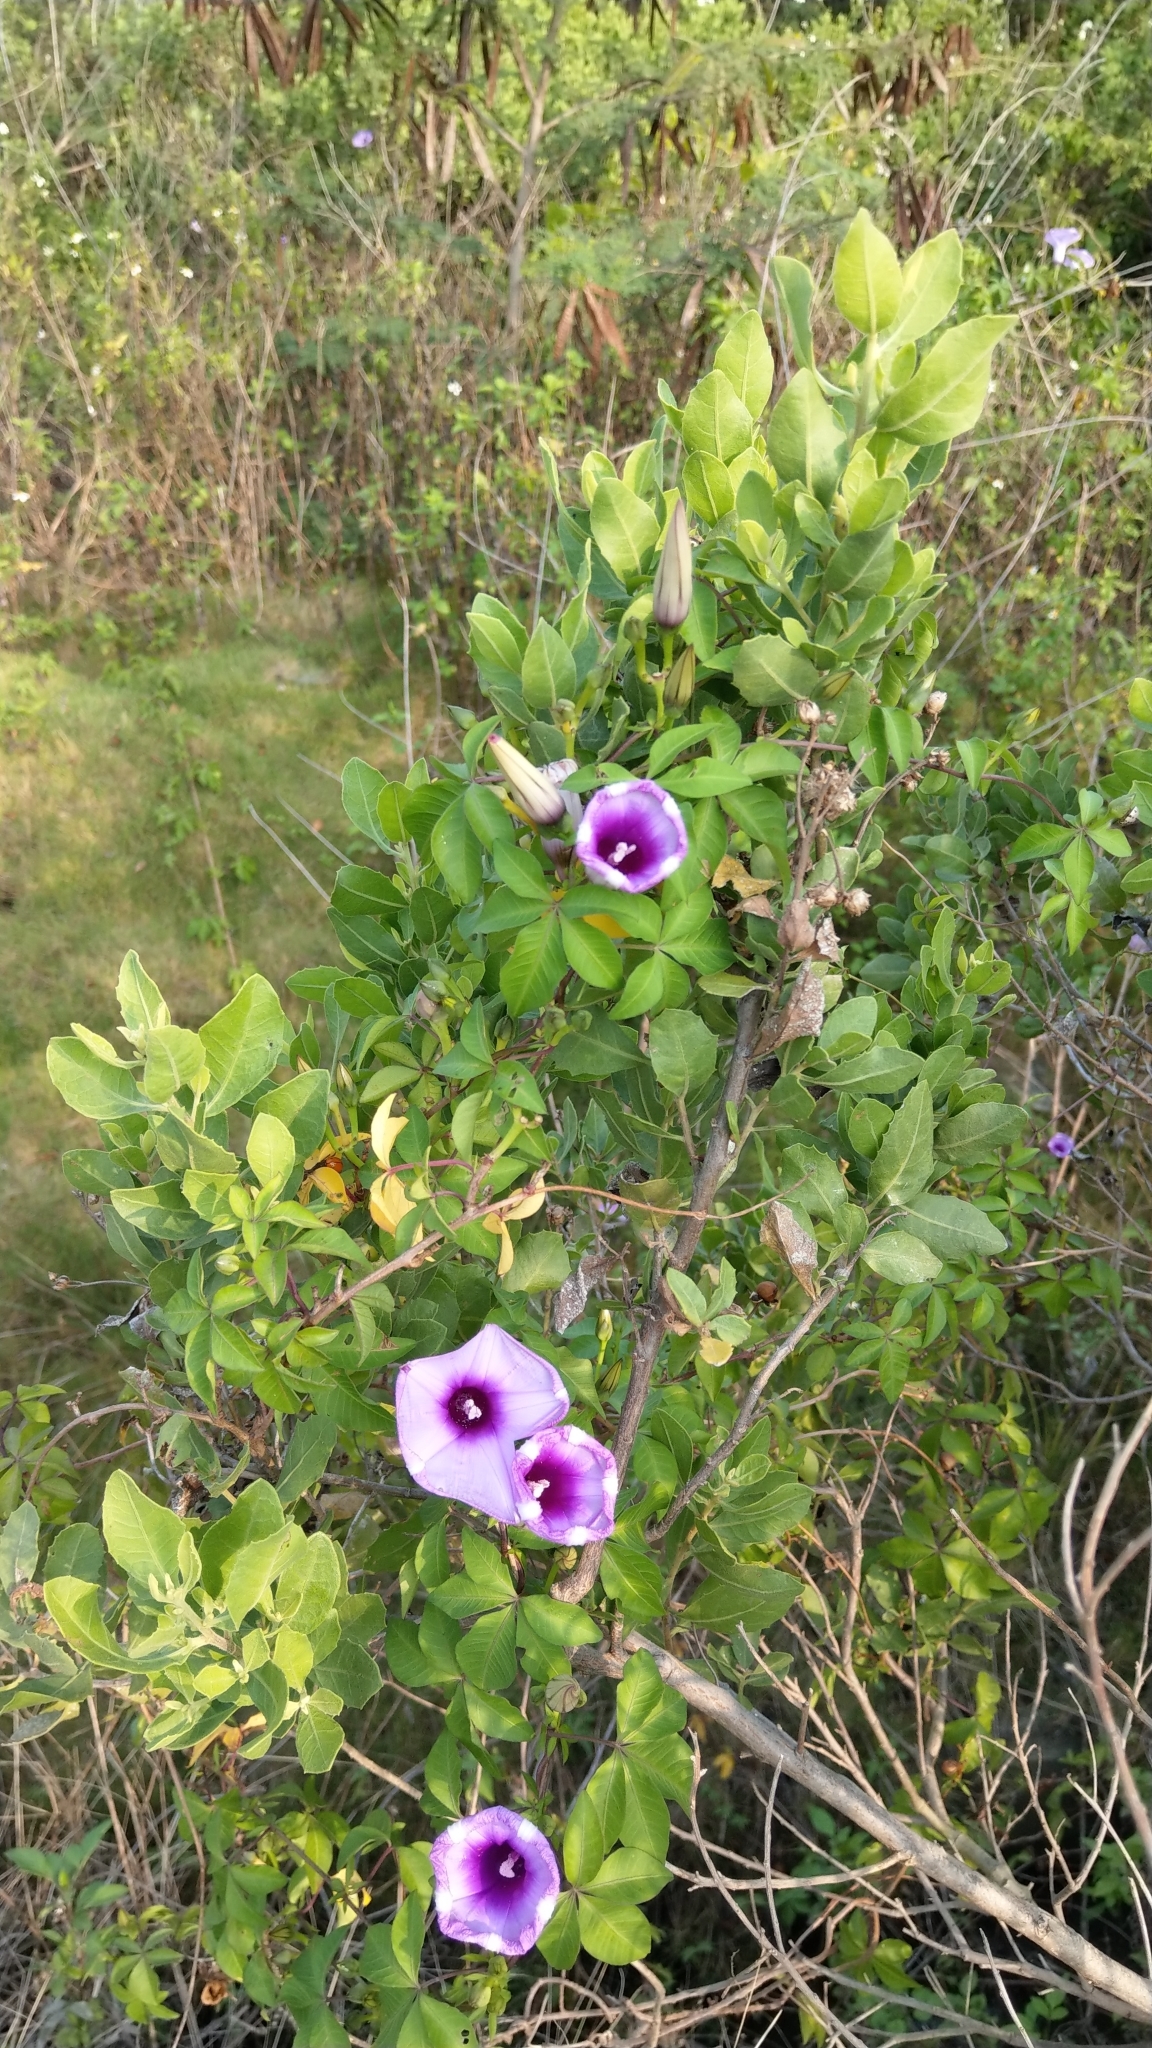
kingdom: Plantae
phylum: Tracheophyta
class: Magnoliopsida
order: Solanales
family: Convolvulaceae
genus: Ipomoea
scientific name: Ipomoea cairica
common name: Mile a minute vine
